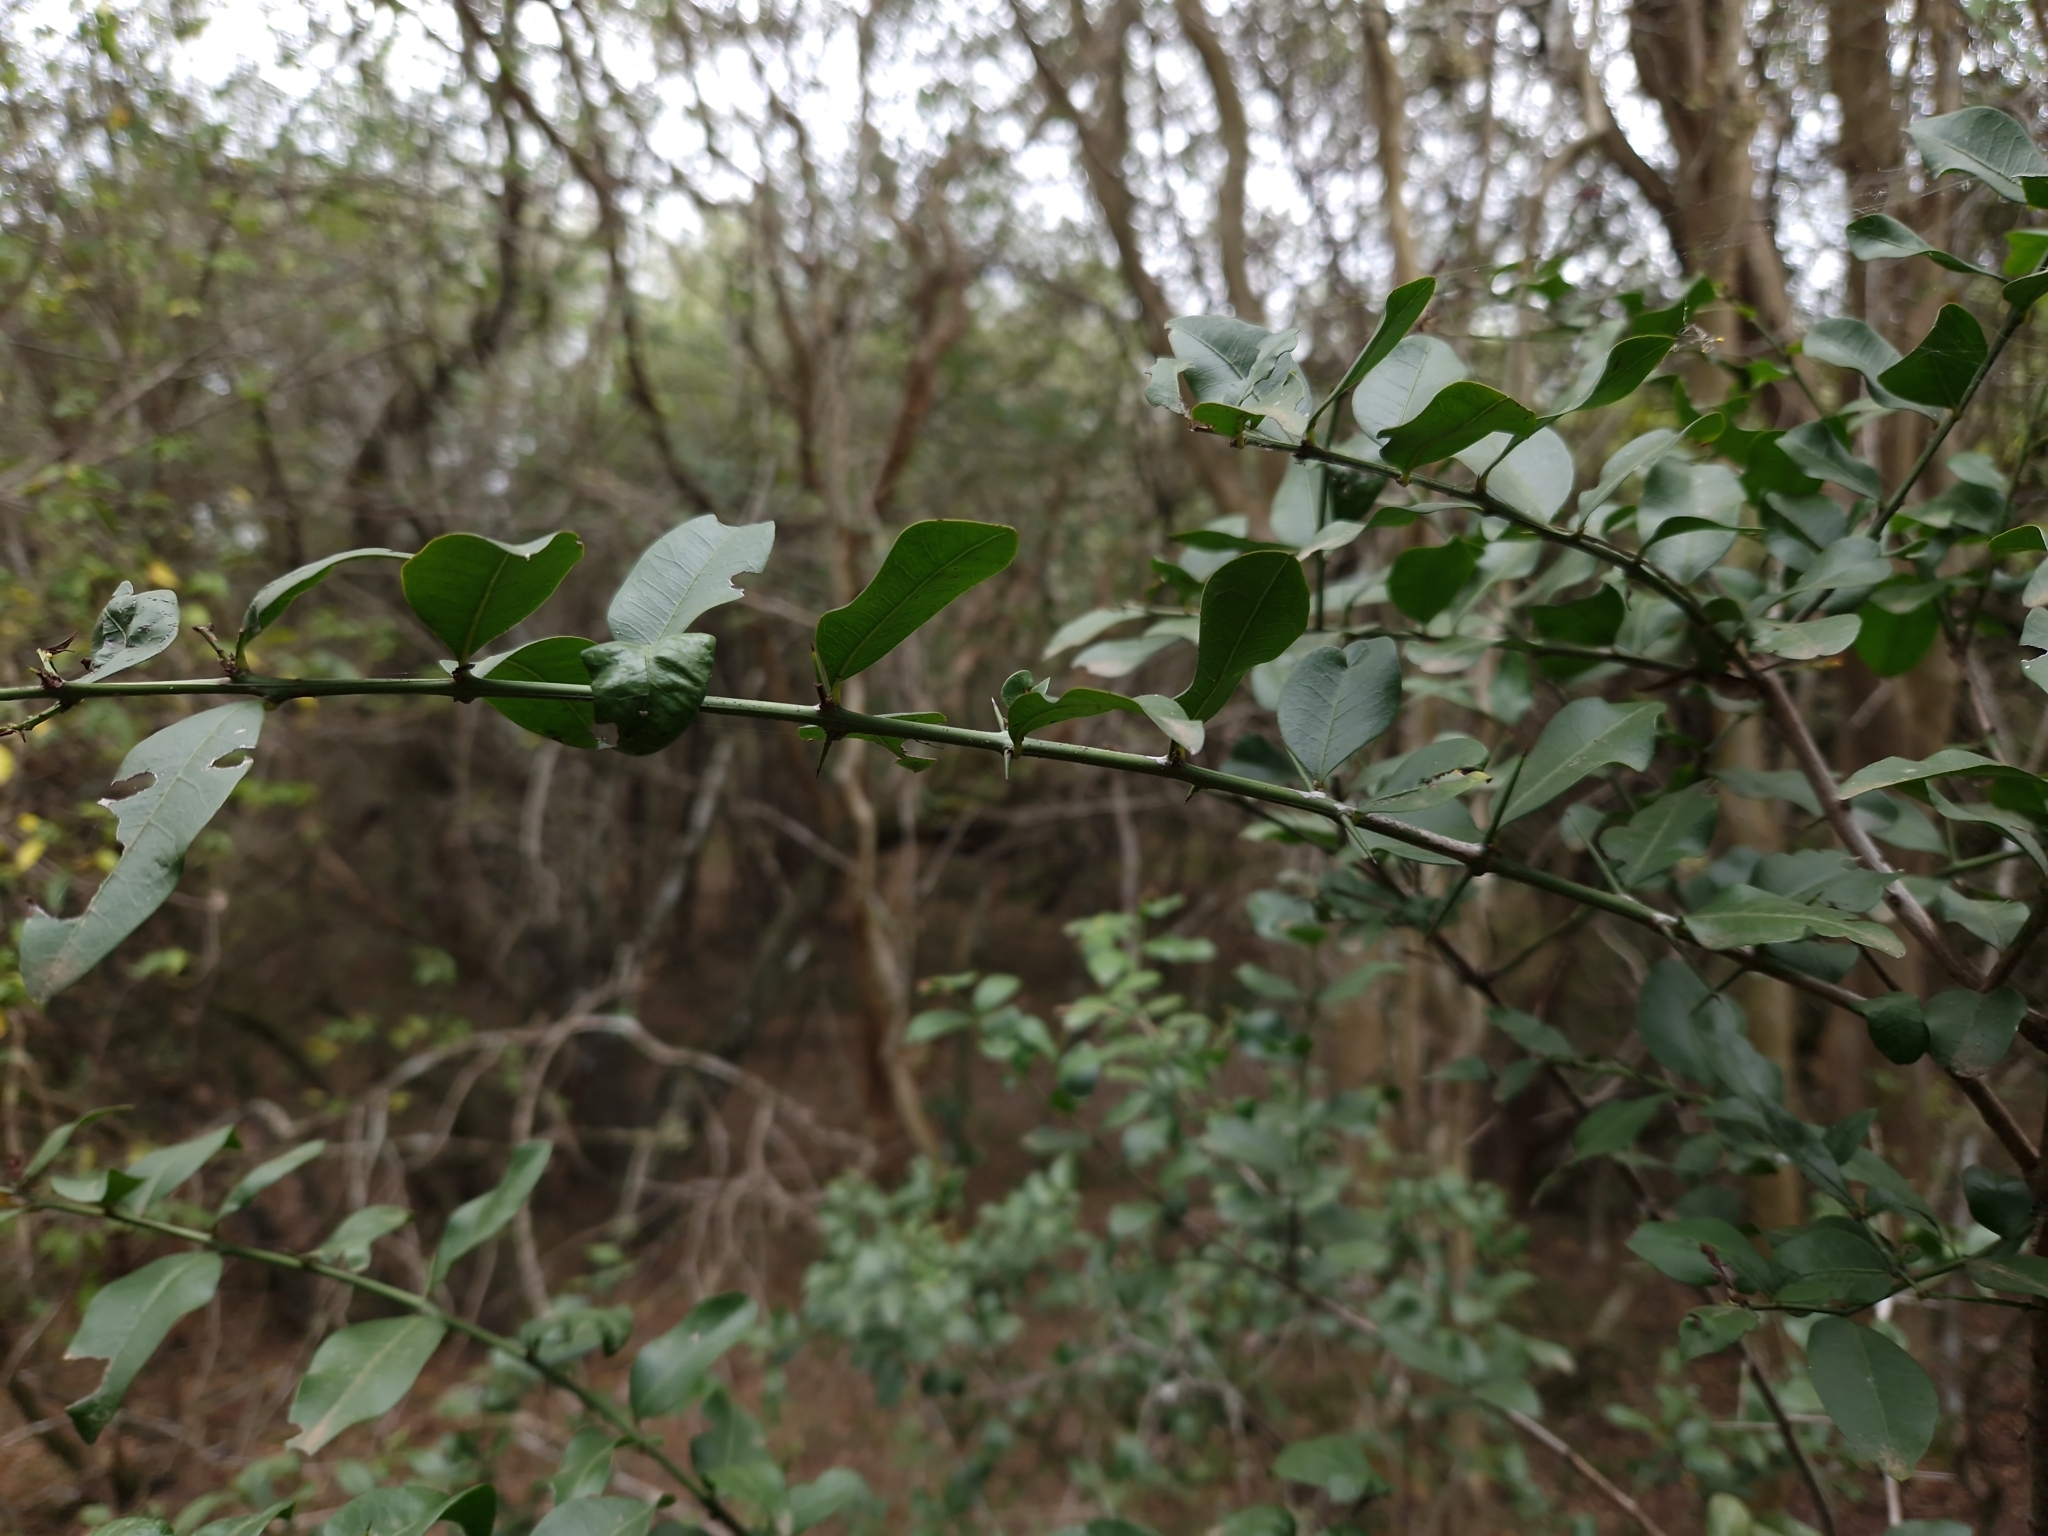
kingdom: Plantae
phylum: Tracheophyta
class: Magnoliopsida
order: Rosales
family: Rhamnaceae
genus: Scutia
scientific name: Scutia buxifolia
